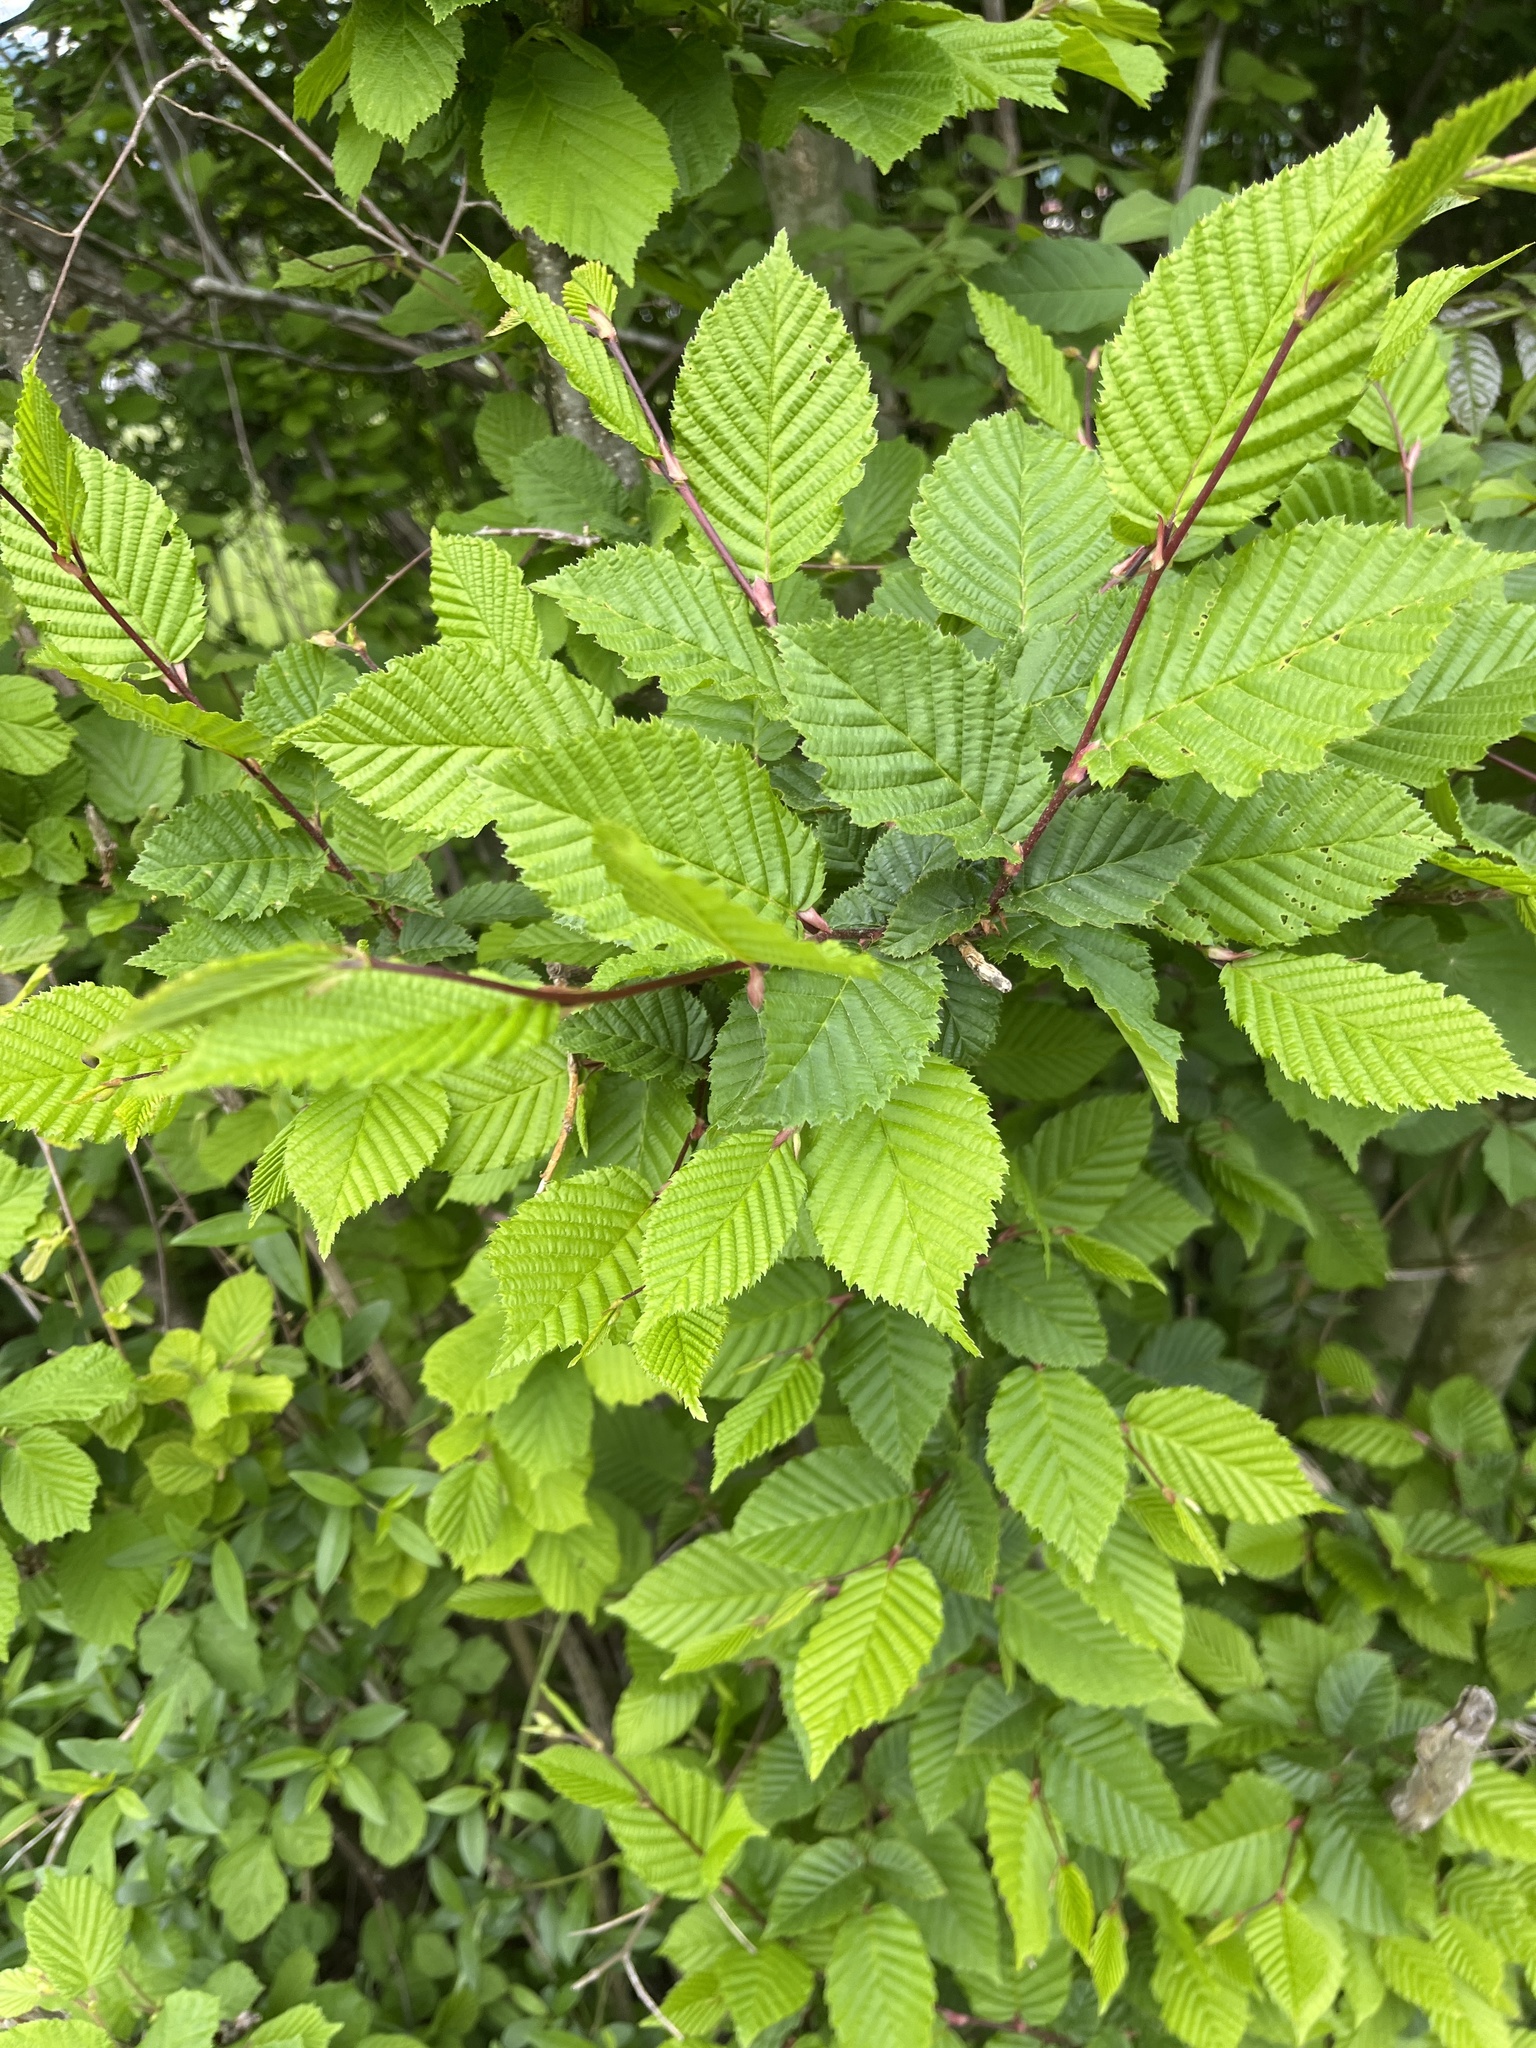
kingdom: Plantae
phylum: Tracheophyta
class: Magnoliopsida
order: Fagales
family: Betulaceae
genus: Carpinus
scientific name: Carpinus betulus
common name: Hornbeam
